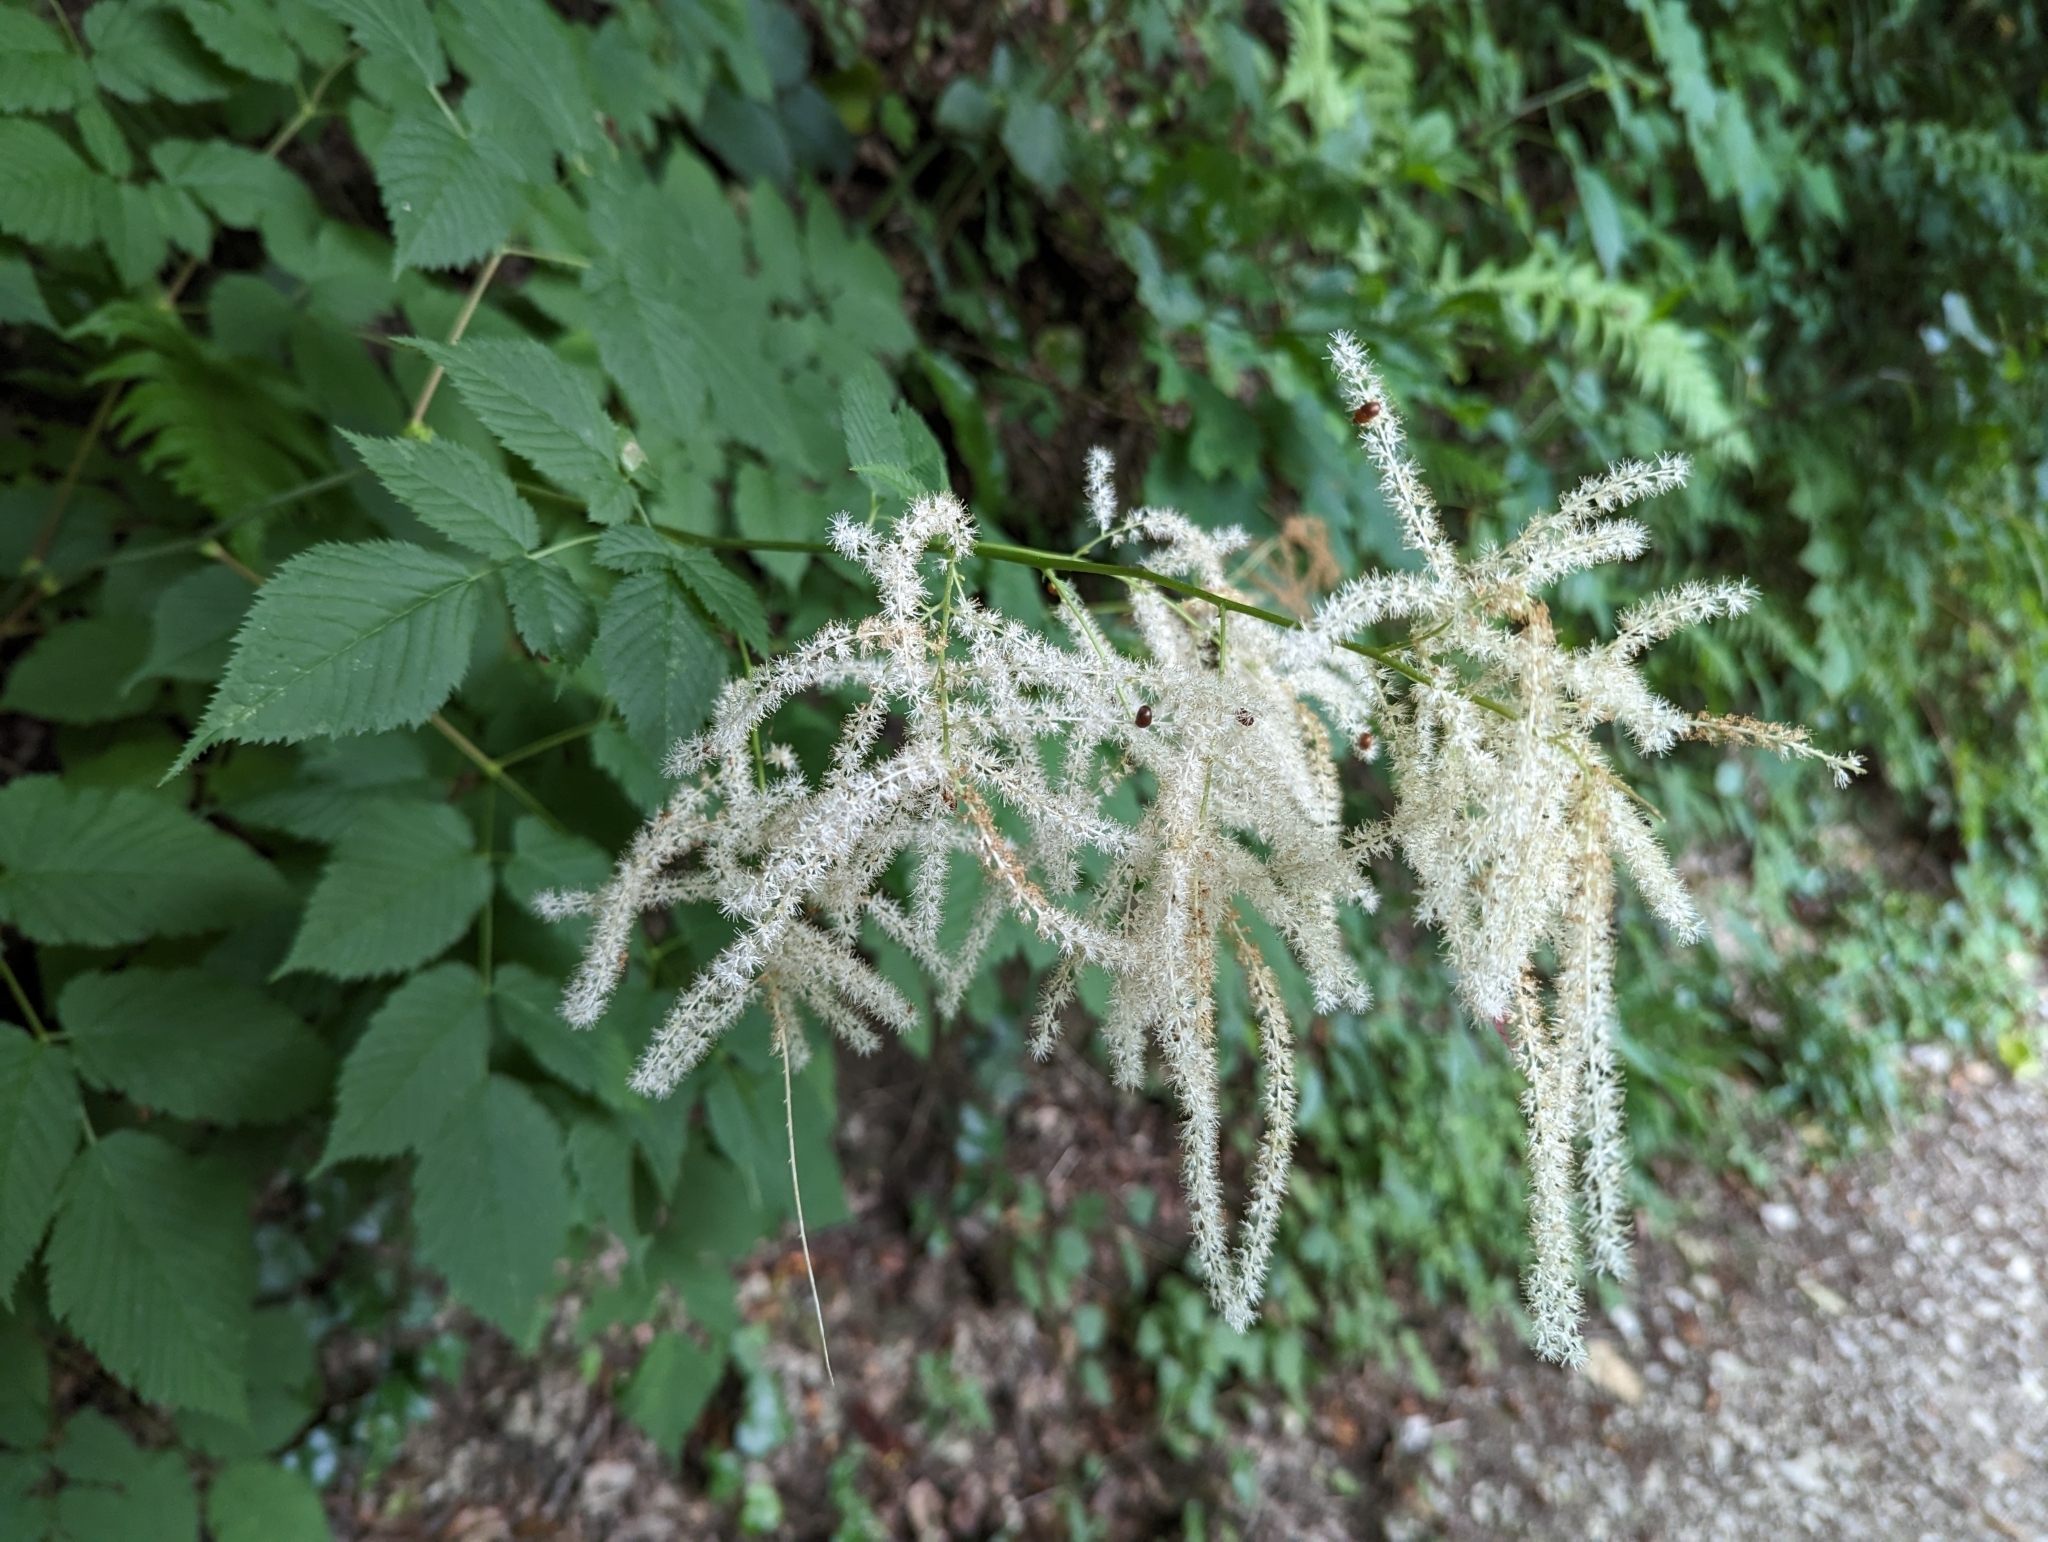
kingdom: Plantae
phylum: Tracheophyta
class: Magnoliopsida
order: Rosales
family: Rosaceae
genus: Aruncus
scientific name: Aruncus dioicus
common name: Buck's-beard
